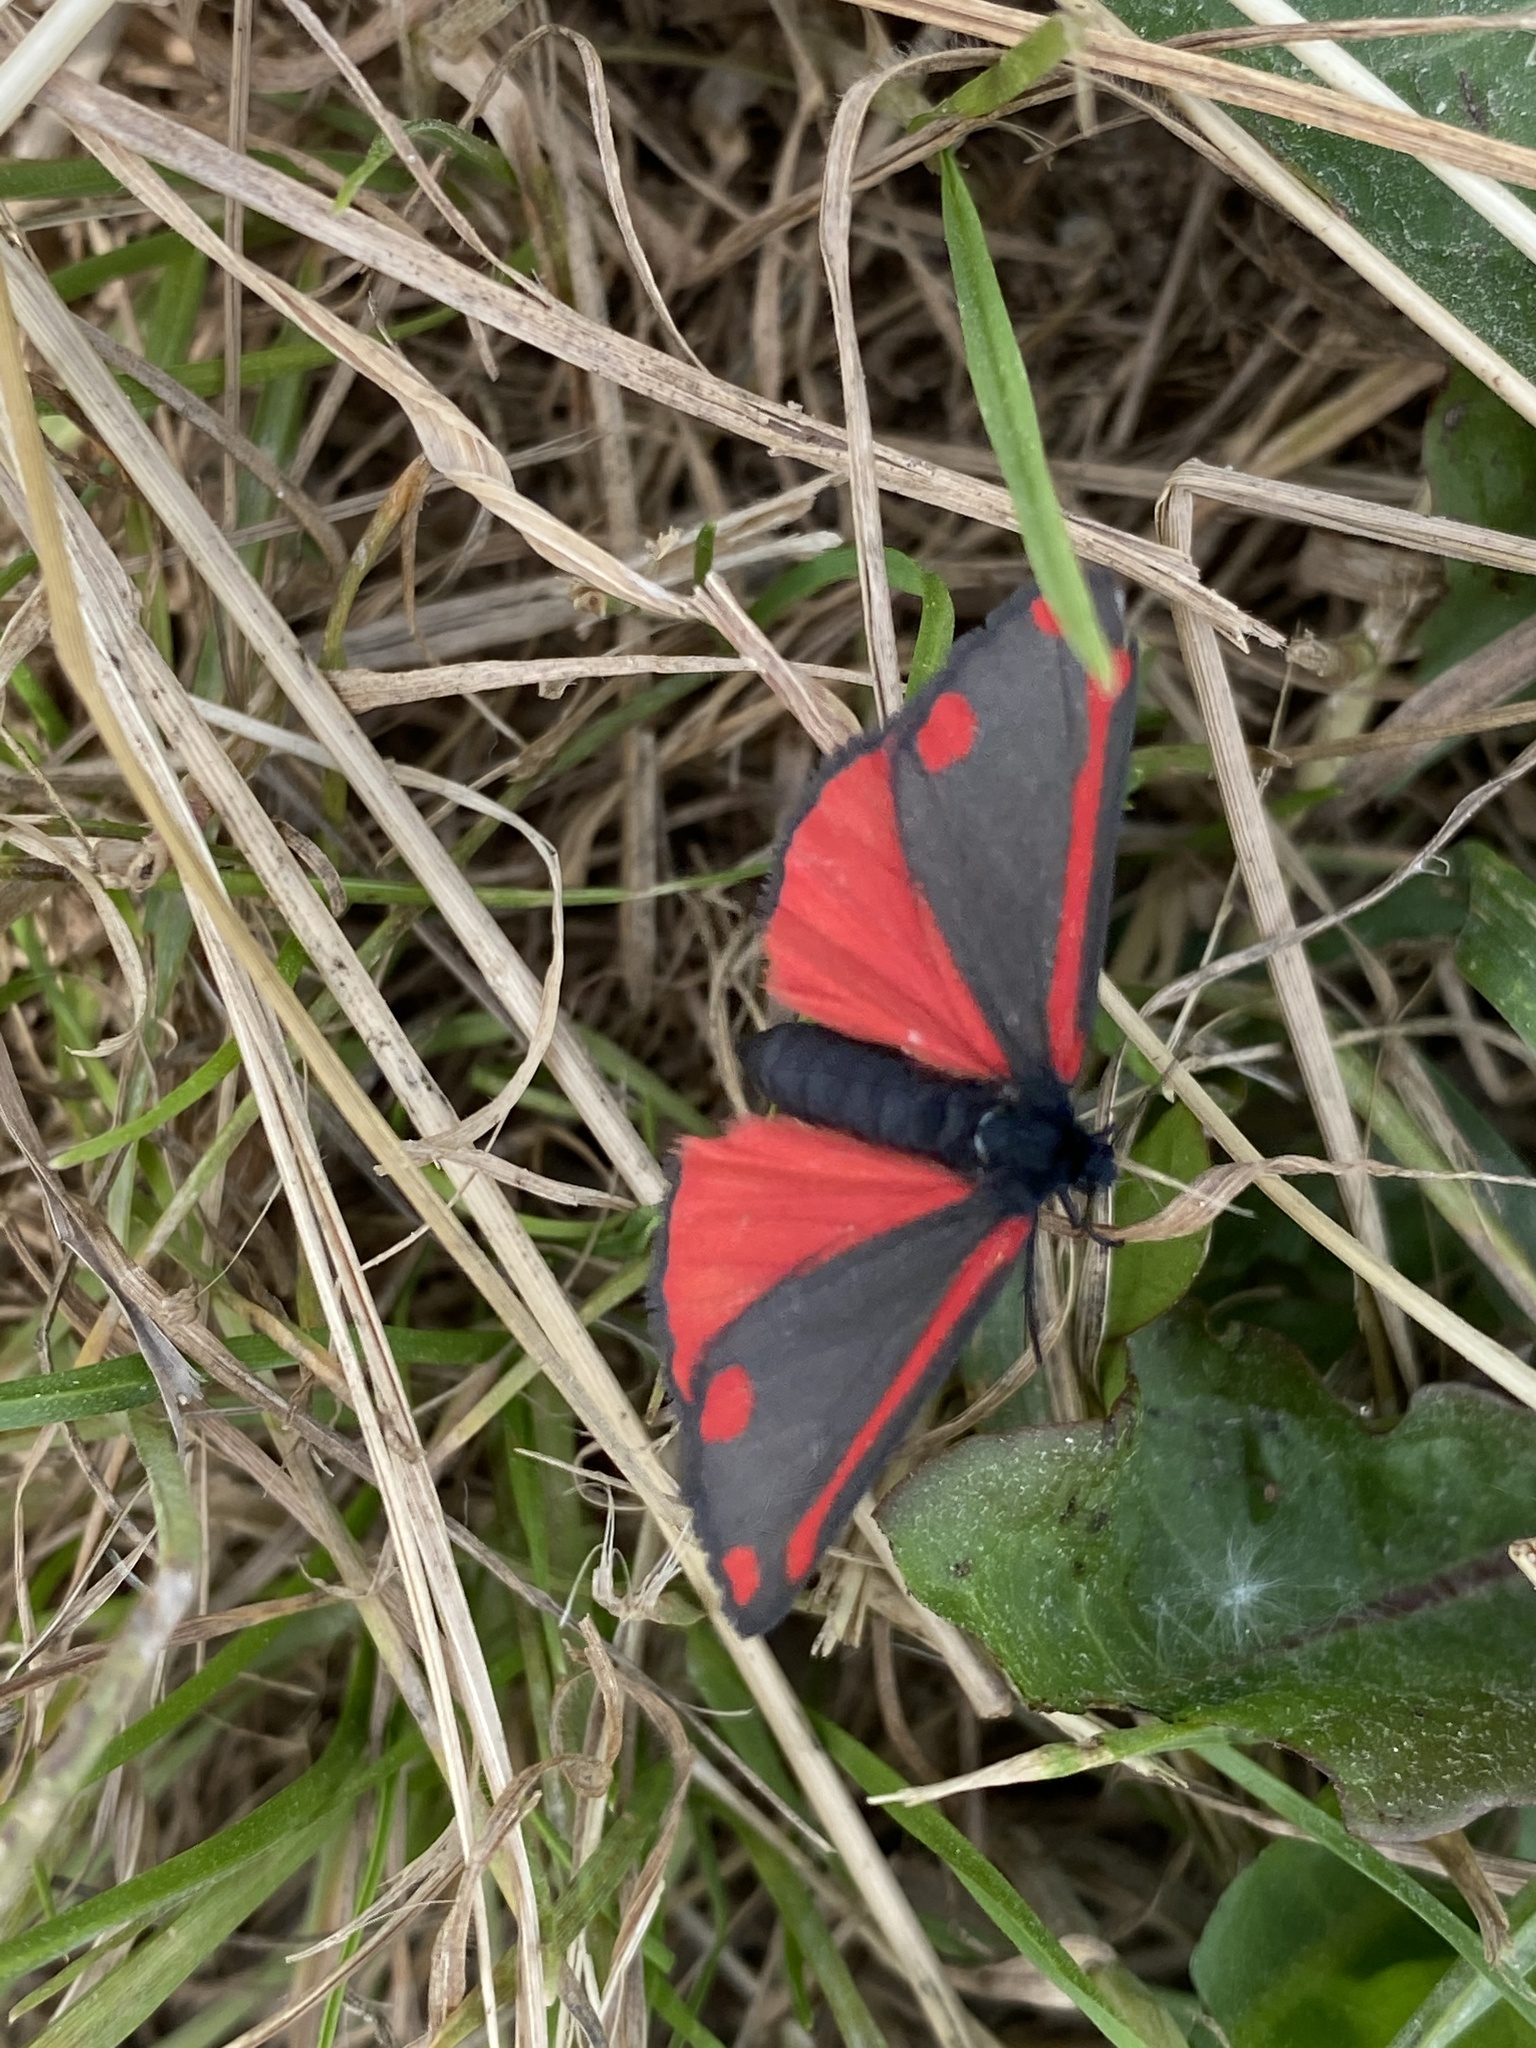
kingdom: Animalia
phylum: Arthropoda
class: Insecta
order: Lepidoptera
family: Erebidae
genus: Tyria
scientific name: Tyria jacobaeae
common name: Cinnabar
